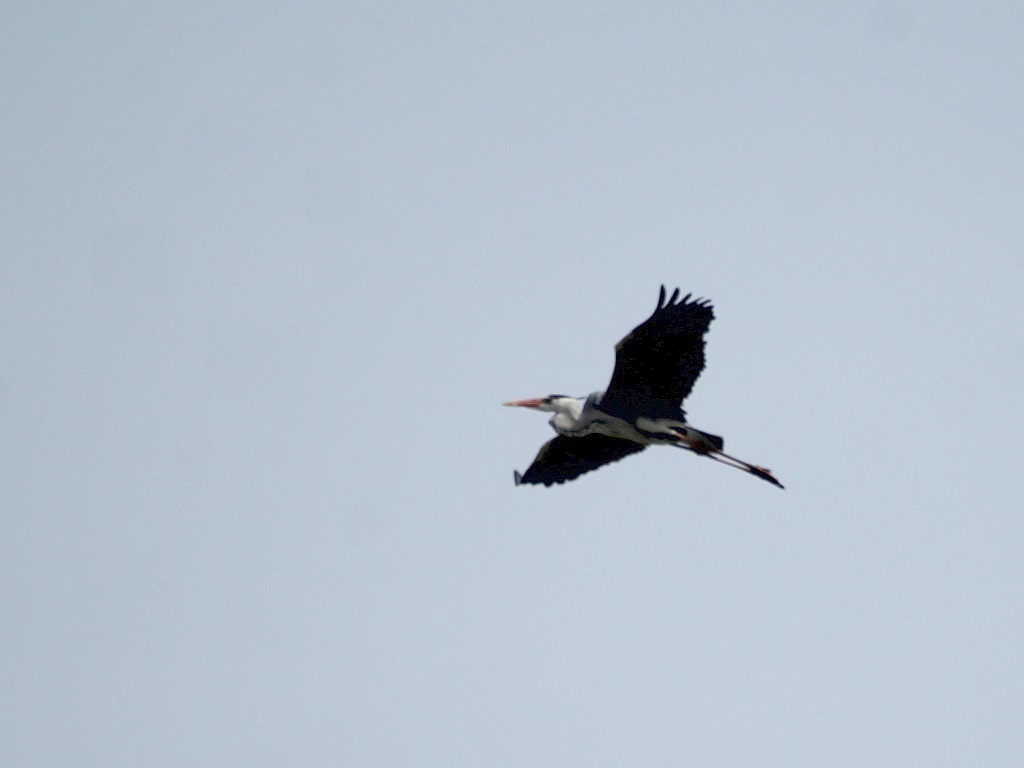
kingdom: Animalia
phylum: Chordata
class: Aves
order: Pelecaniformes
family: Ardeidae
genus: Ardea
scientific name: Ardea cinerea
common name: Grey heron
